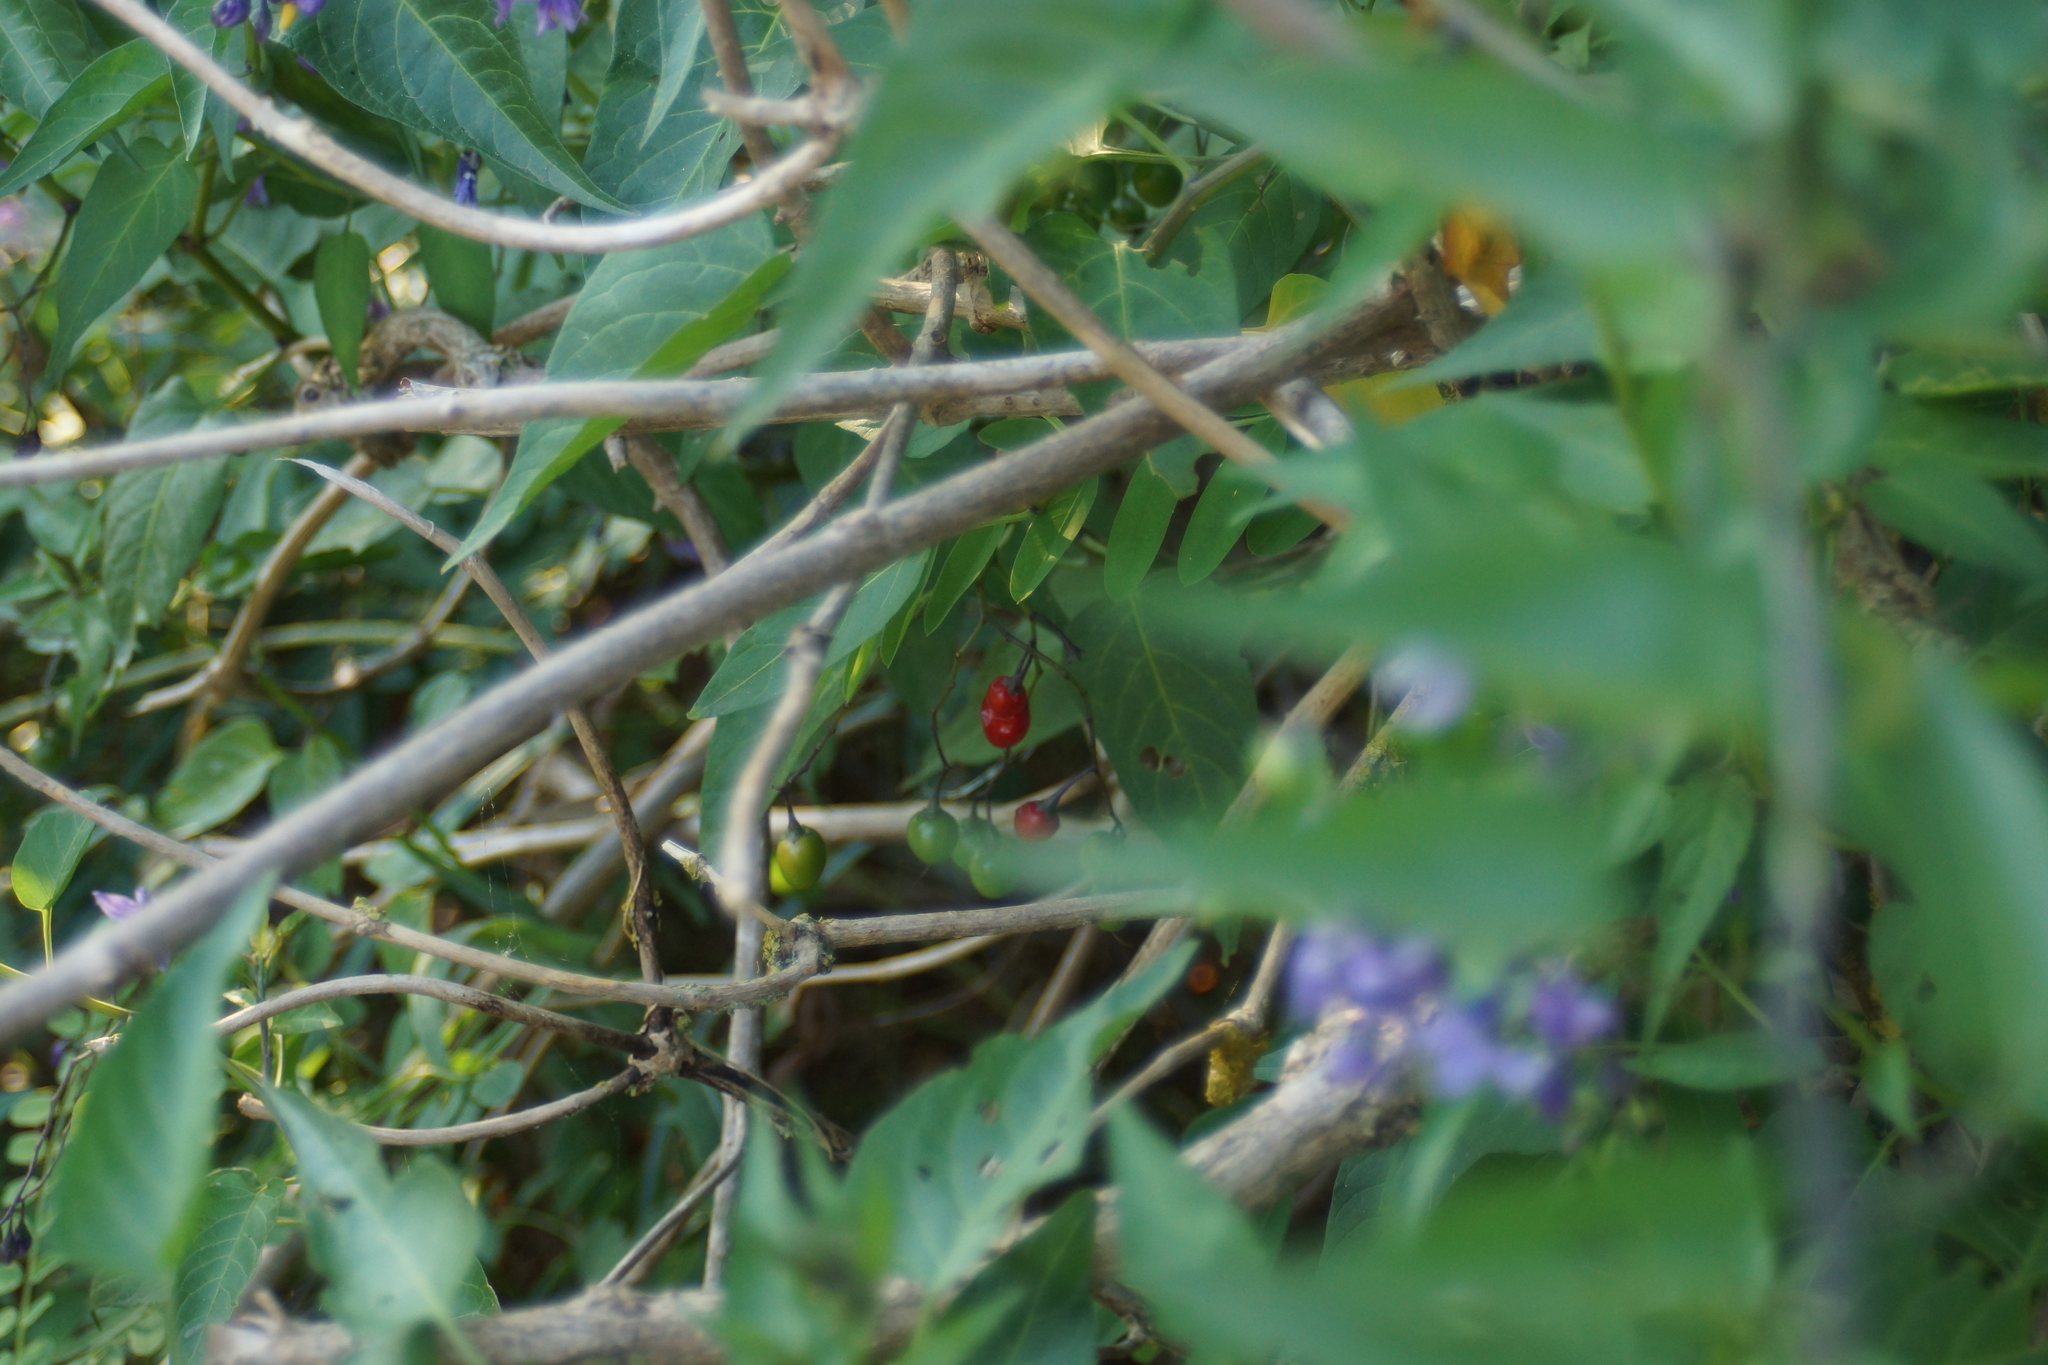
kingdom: Plantae
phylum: Tracheophyta
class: Magnoliopsida
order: Solanales
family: Solanaceae
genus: Solanum
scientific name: Solanum dulcamara
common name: Climbing nightshade
